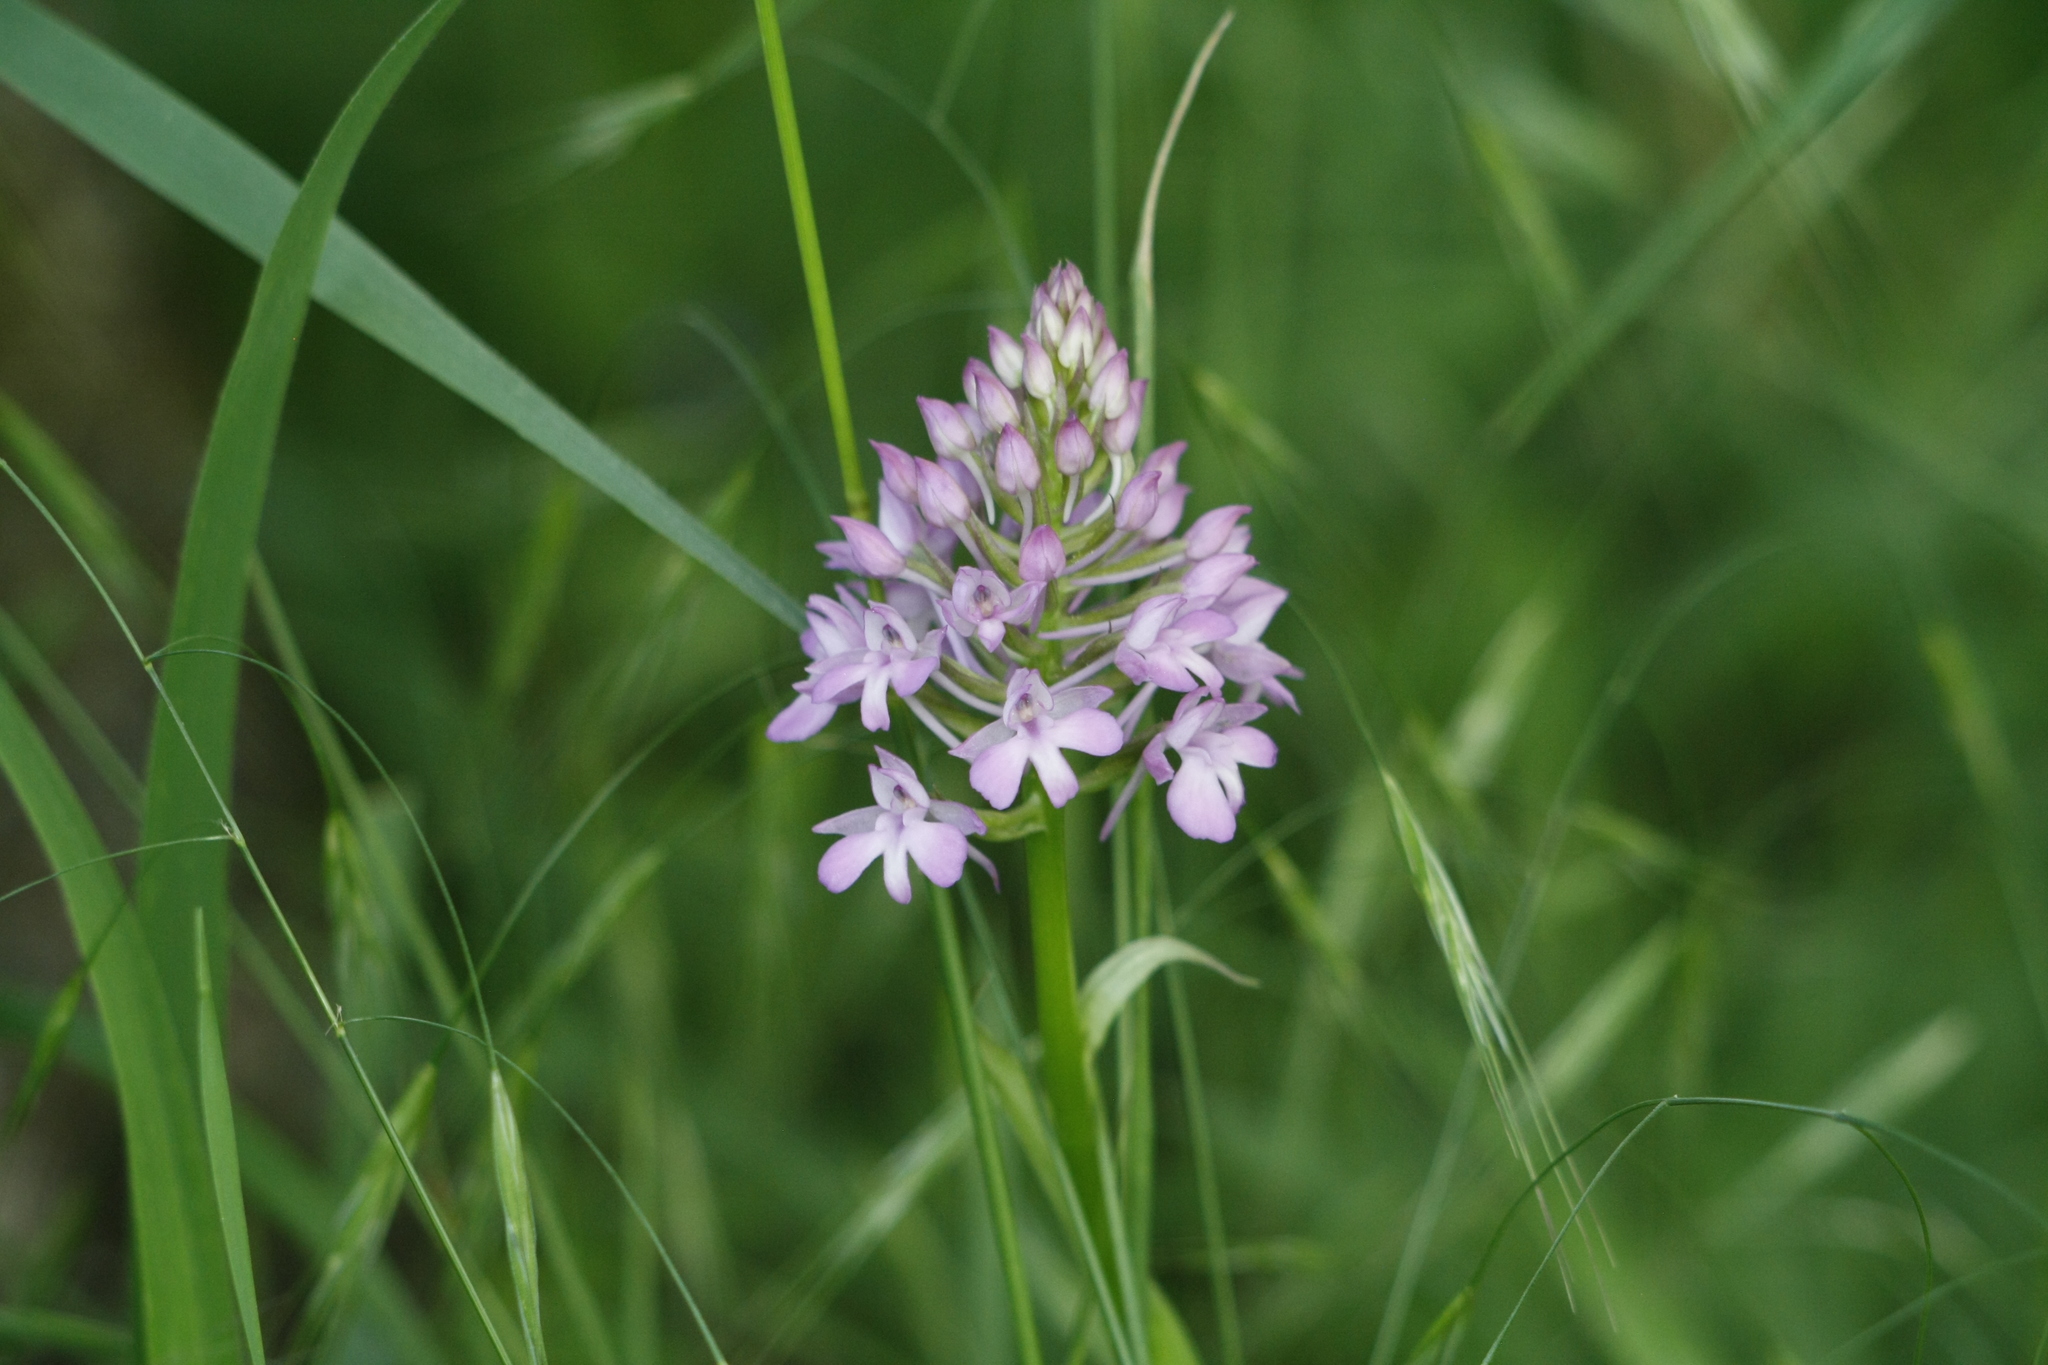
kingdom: Plantae
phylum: Tracheophyta
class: Liliopsida
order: Asparagales
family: Orchidaceae
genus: Anacamptis
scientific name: Anacamptis pyramidalis
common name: Pyramidal orchid
